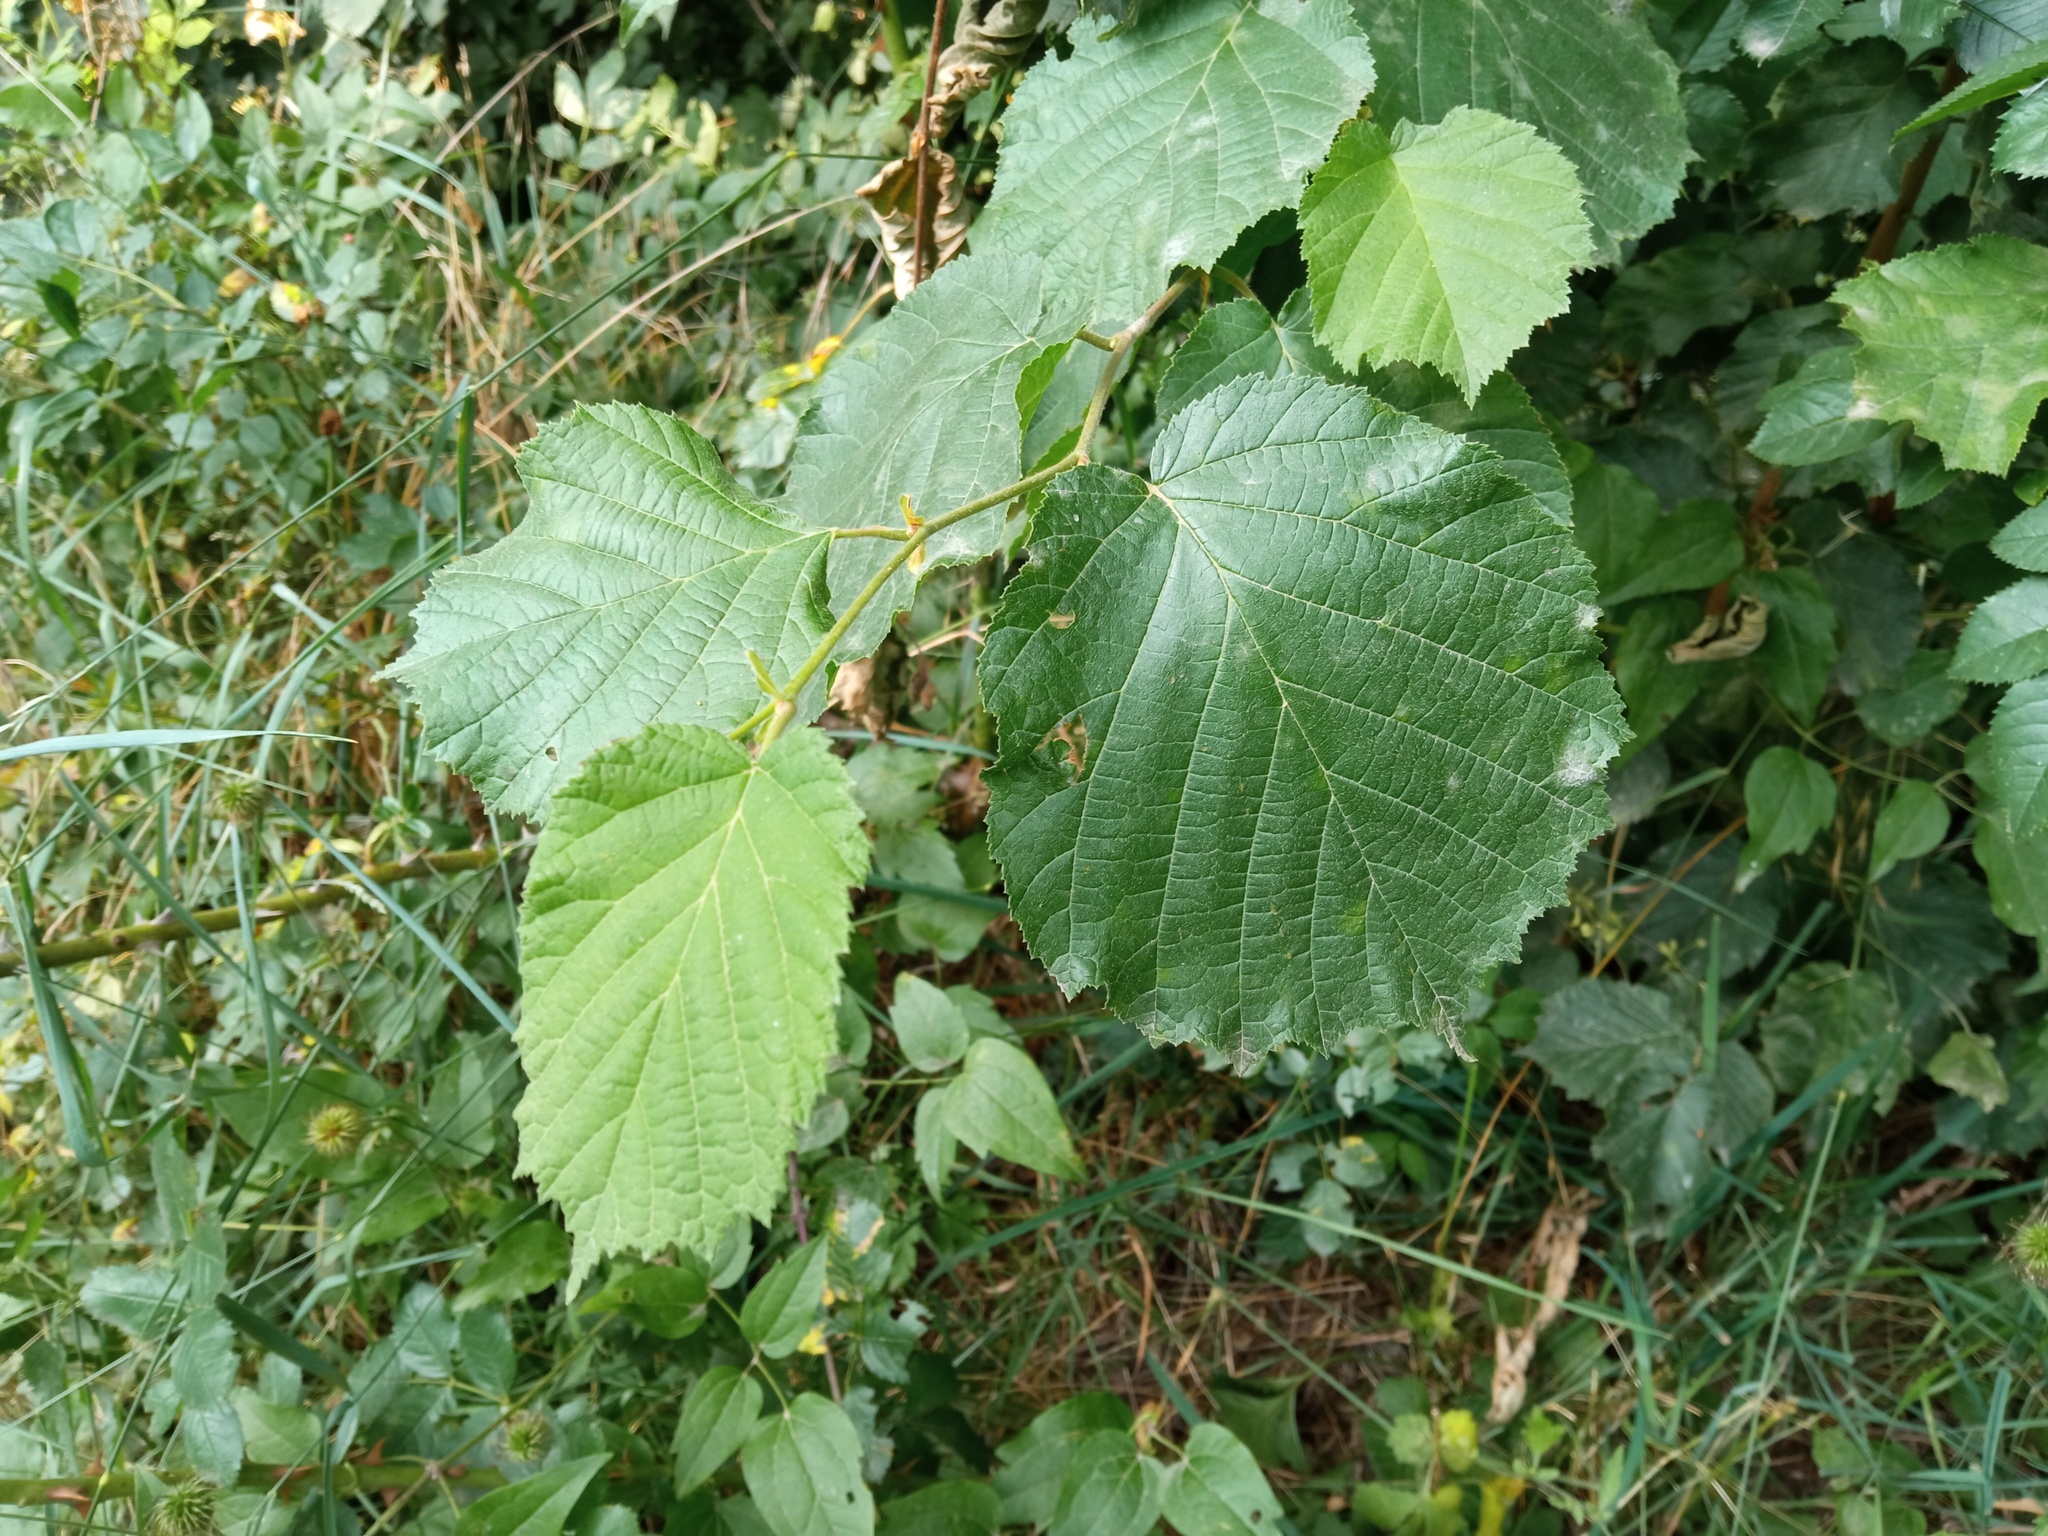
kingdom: Plantae
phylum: Tracheophyta
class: Magnoliopsida
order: Fagales
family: Betulaceae
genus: Corylus
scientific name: Corylus avellana
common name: European hazel
